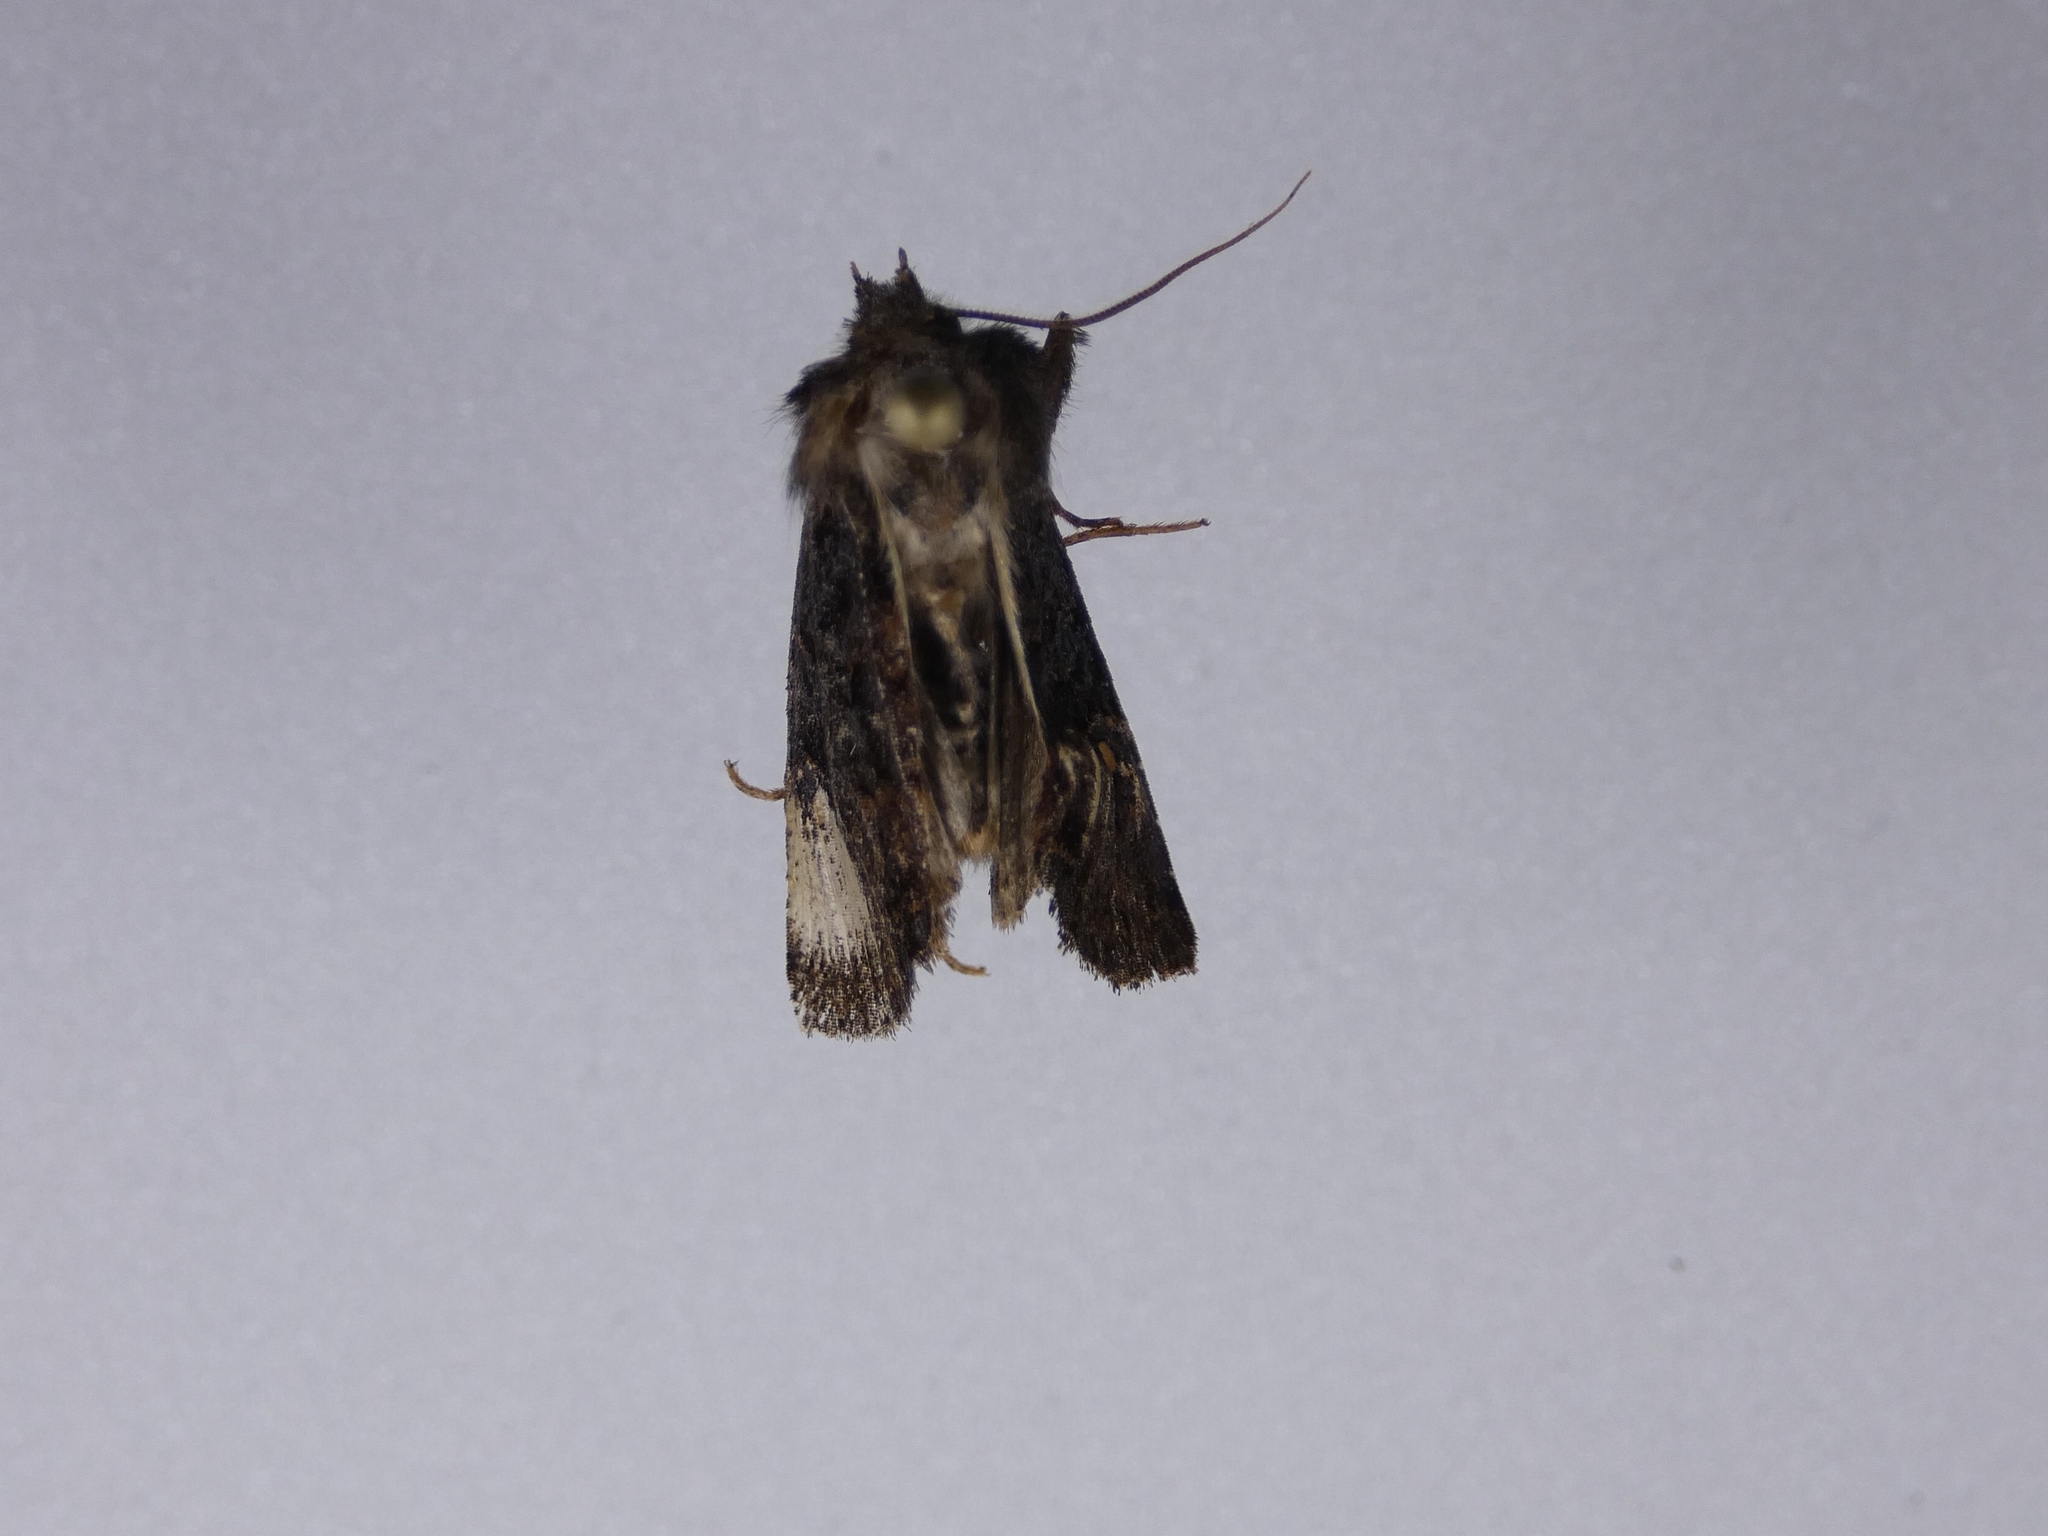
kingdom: Animalia
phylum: Arthropoda
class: Insecta
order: Lepidoptera
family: Noctuidae
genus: Austramathes
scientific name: Austramathes purpurea
